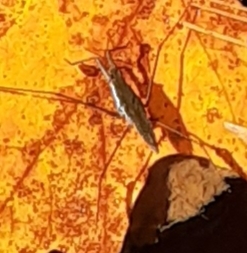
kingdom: Animalia
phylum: Arthropoda
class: Insecta
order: Hemiptera
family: Gerridae
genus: Aquarius
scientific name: Aquarius remigis
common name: Common water strider
